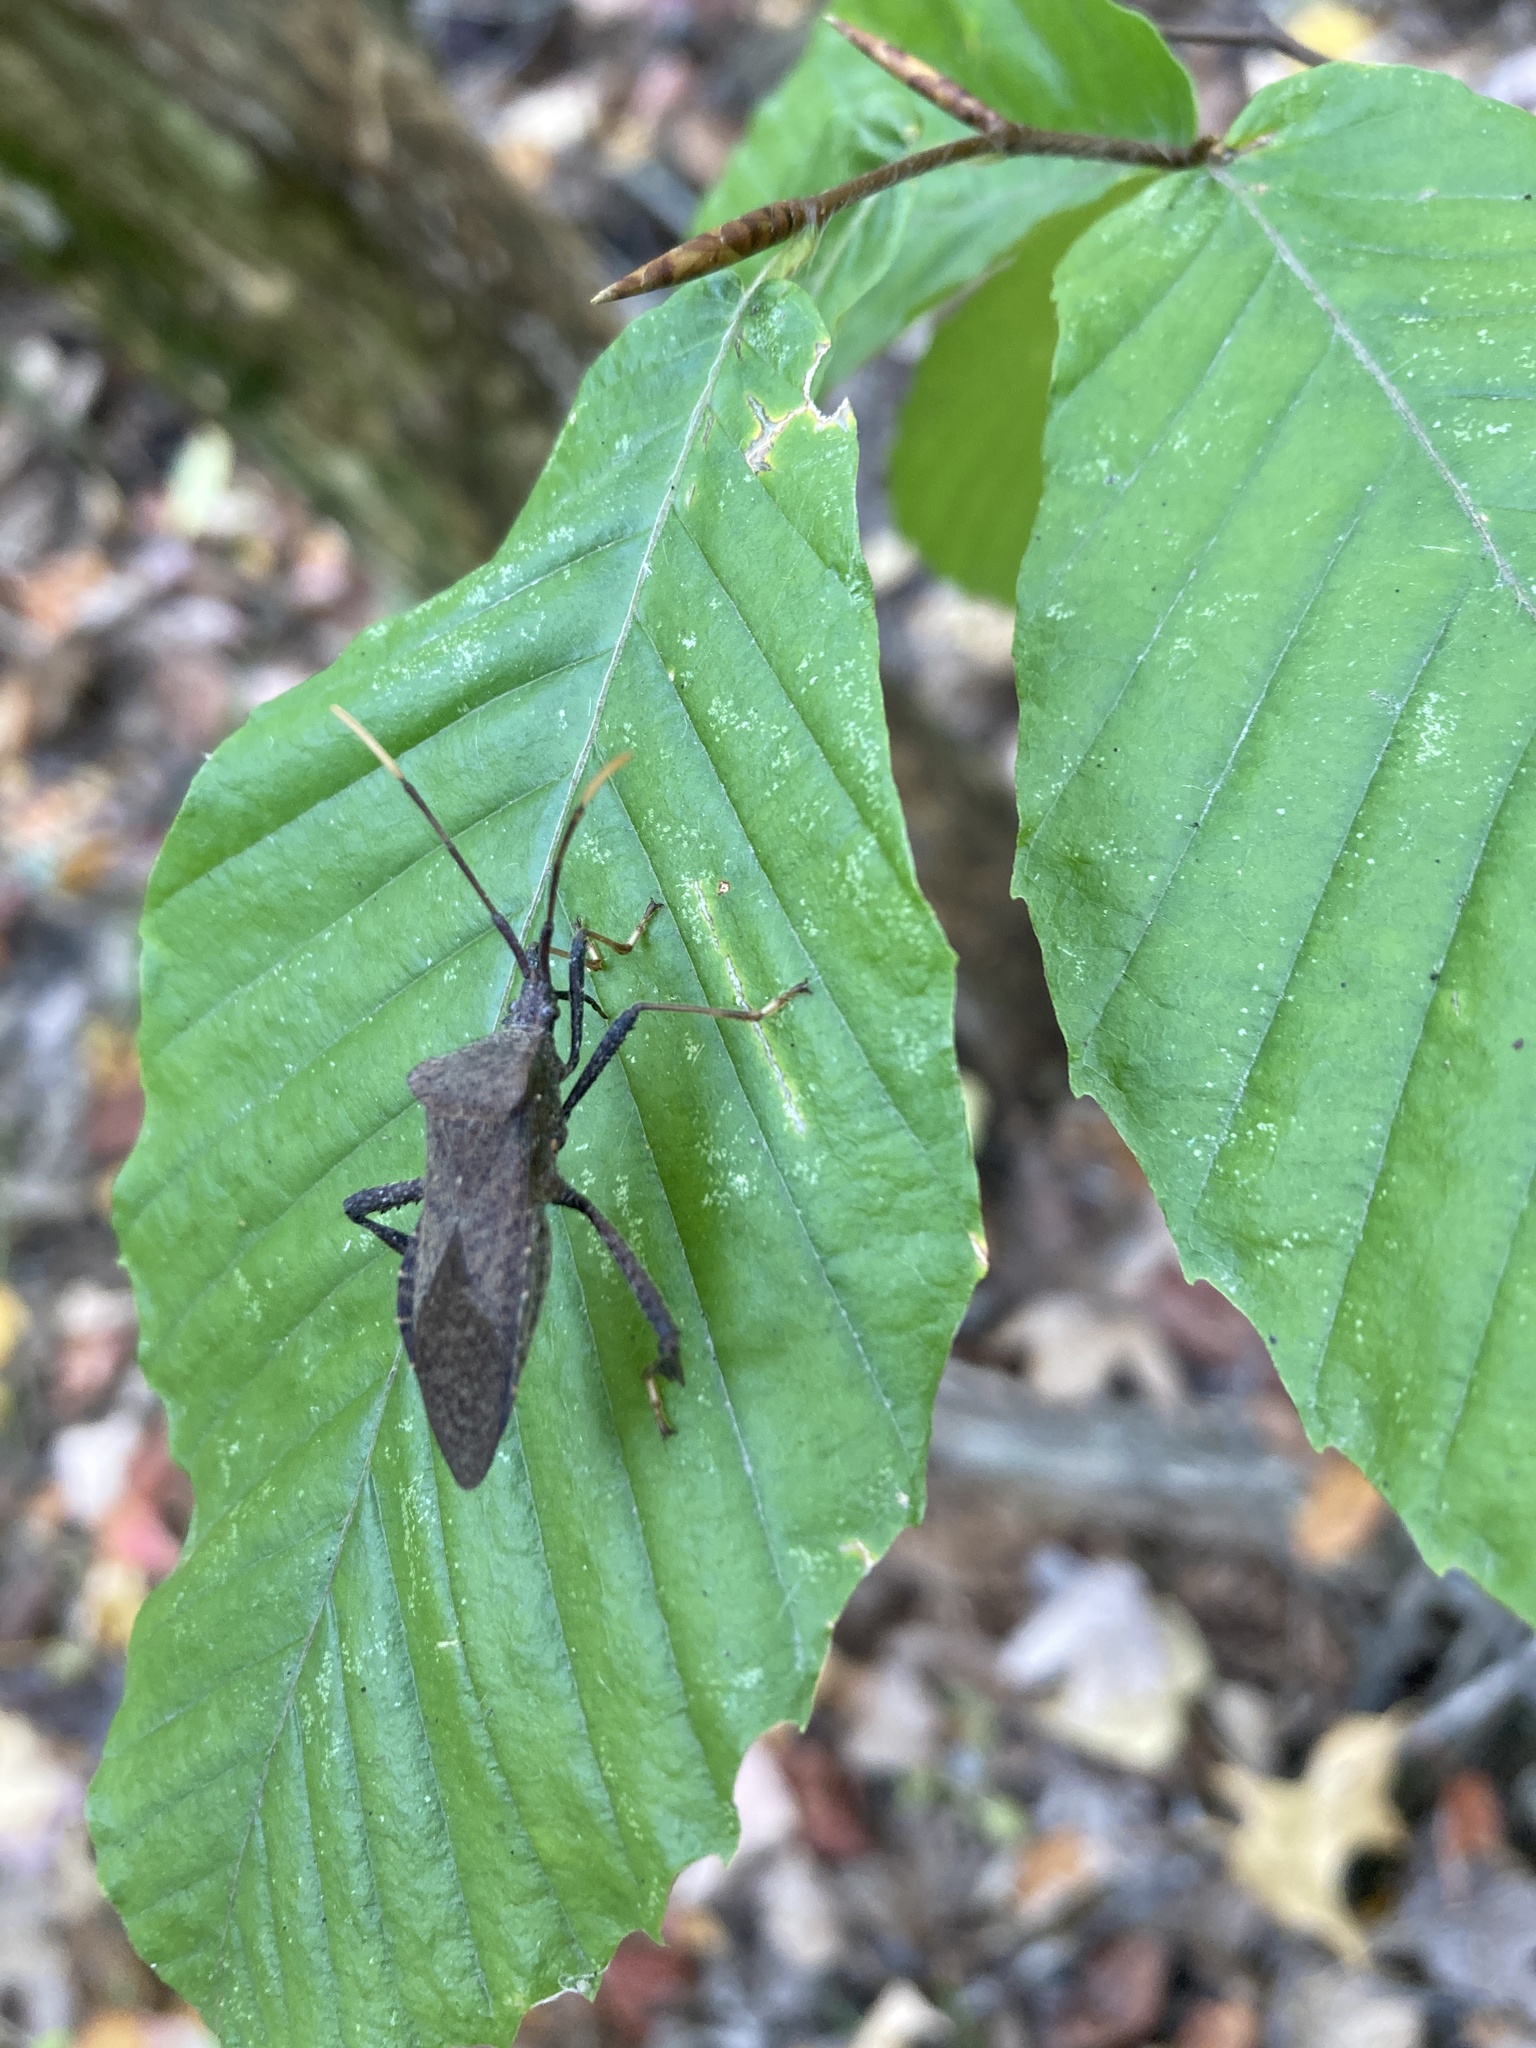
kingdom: Animalia
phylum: Arthropoda
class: Insecta
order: Hemiptera
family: Coreidae
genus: Acanthocephala
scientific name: Acanthocephala terminalis
